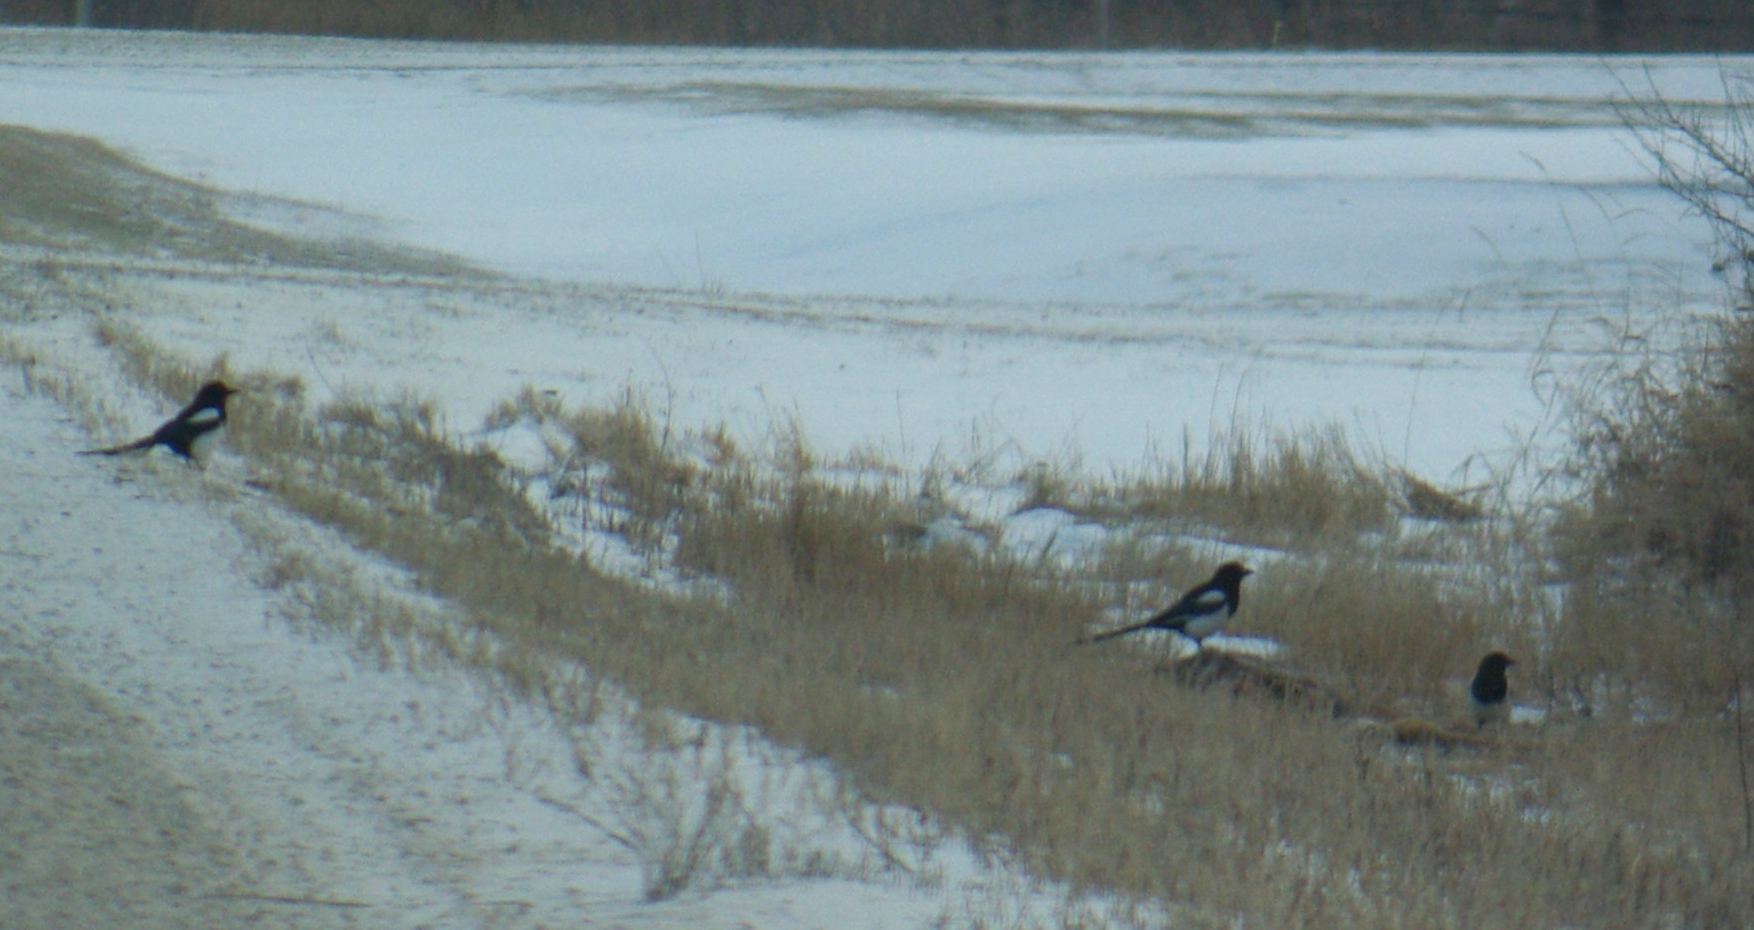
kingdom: Animalia
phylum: Chordata
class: Aves
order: Passeriformes
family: Corvidae
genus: Pica
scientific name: Pica hudsonia
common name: Black-billed magpie
